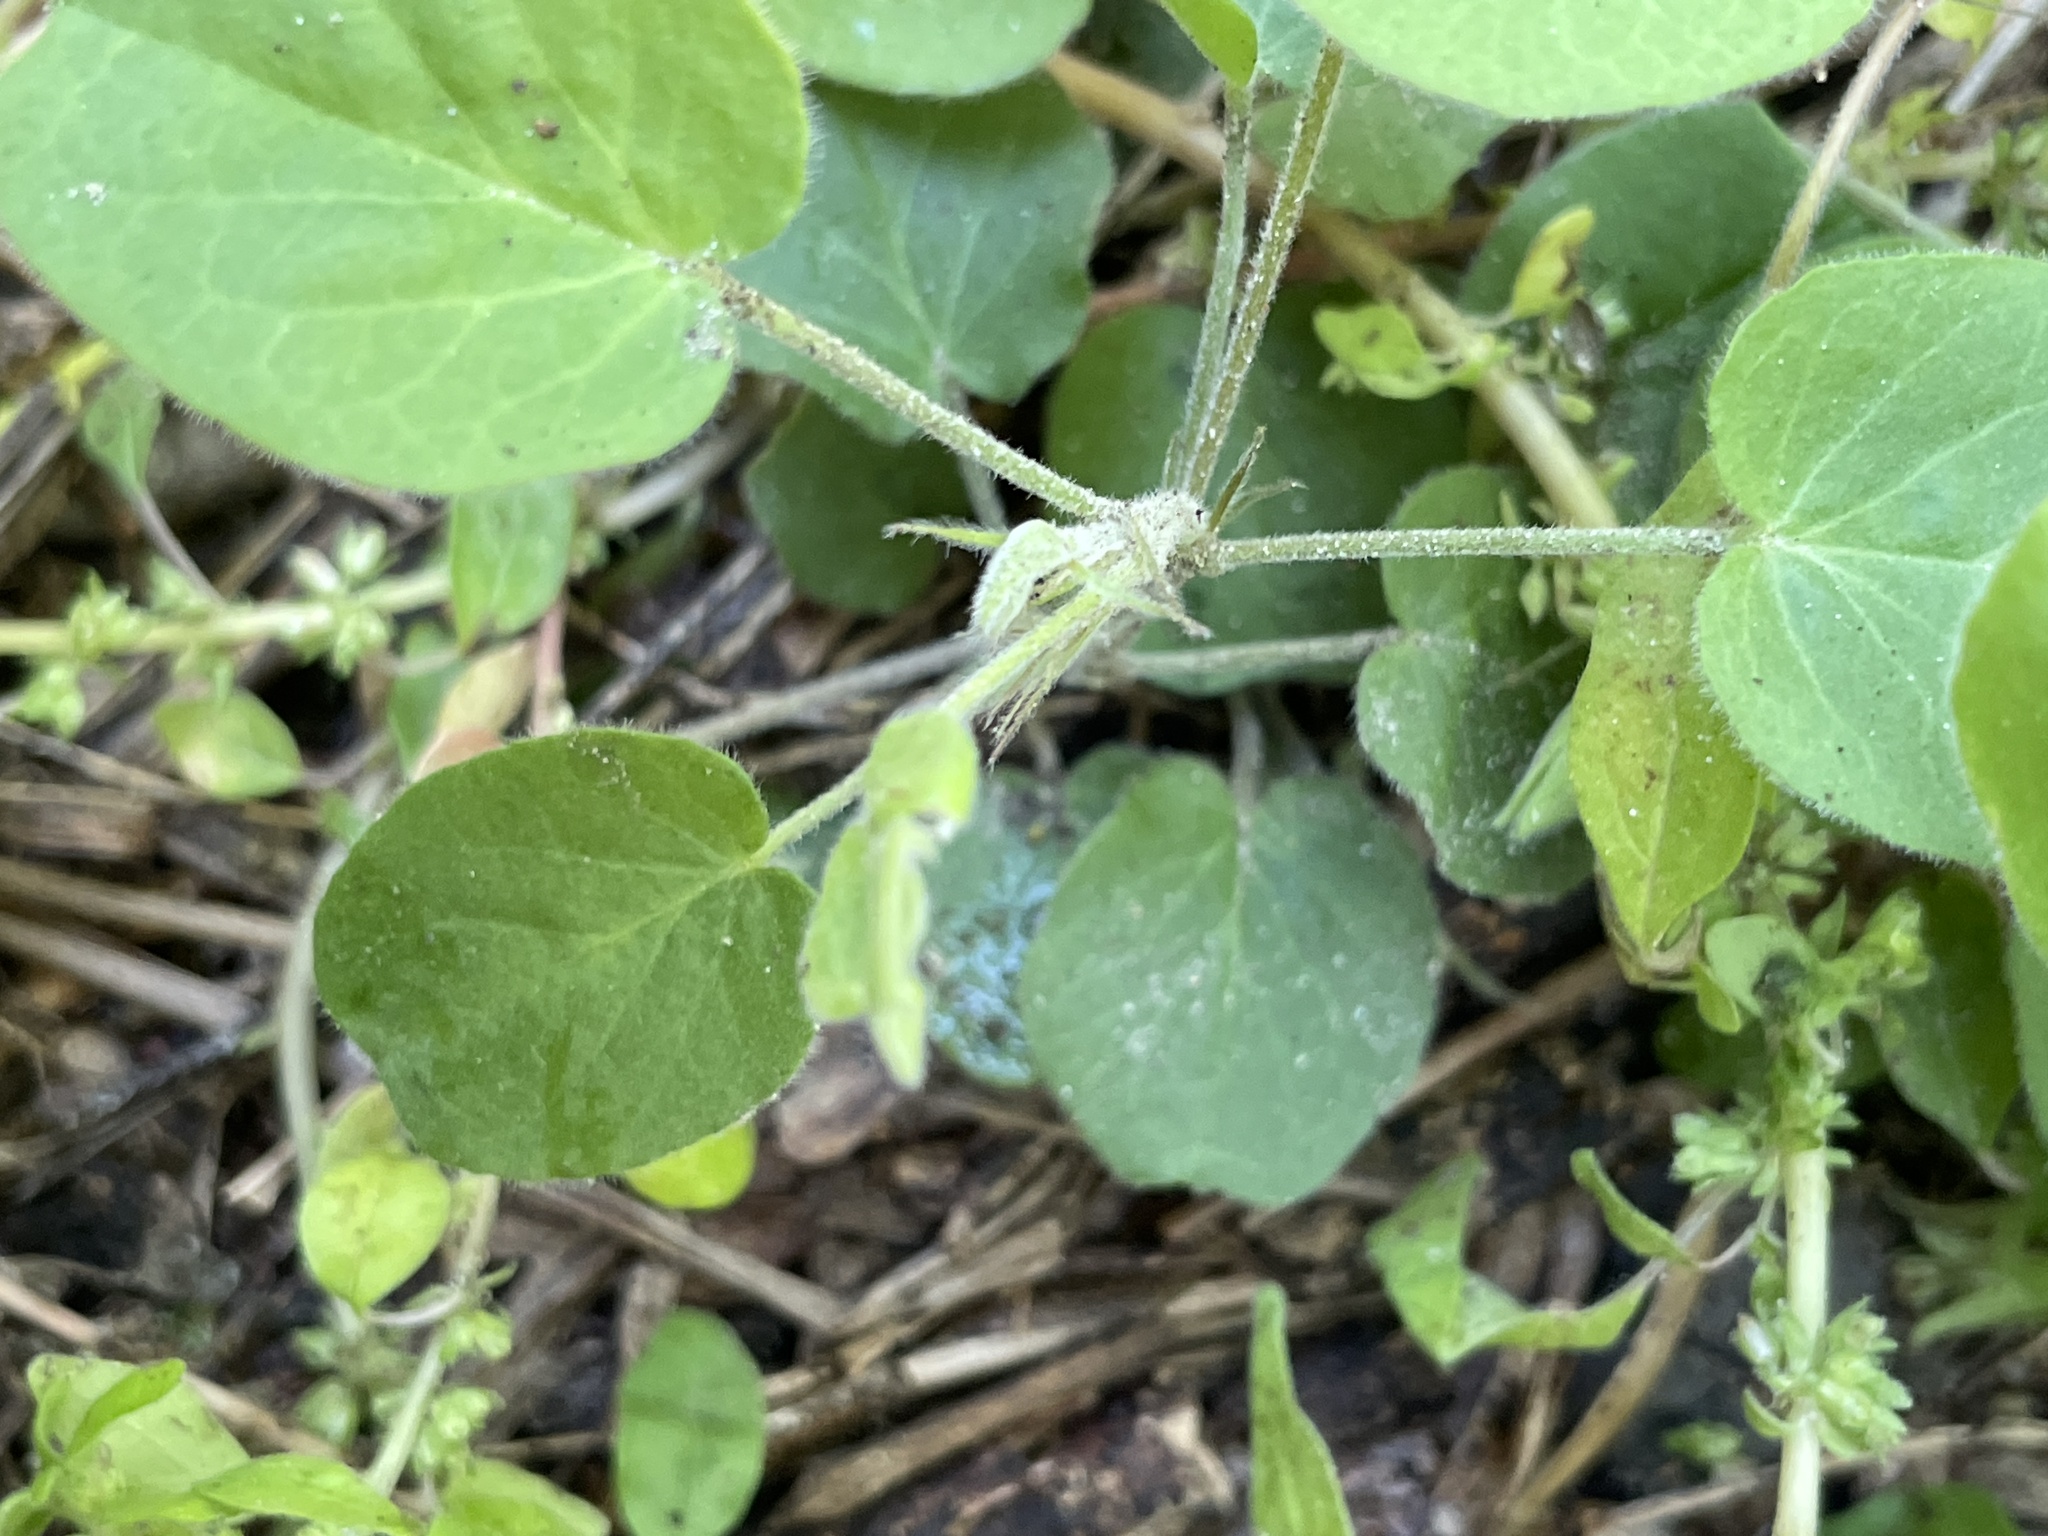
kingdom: Plantae
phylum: Tracheophyta
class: Magnoliopsida
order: Oxalidales
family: Oxalidaceae
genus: Oxalis
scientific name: Oxalis dichondrifolia
